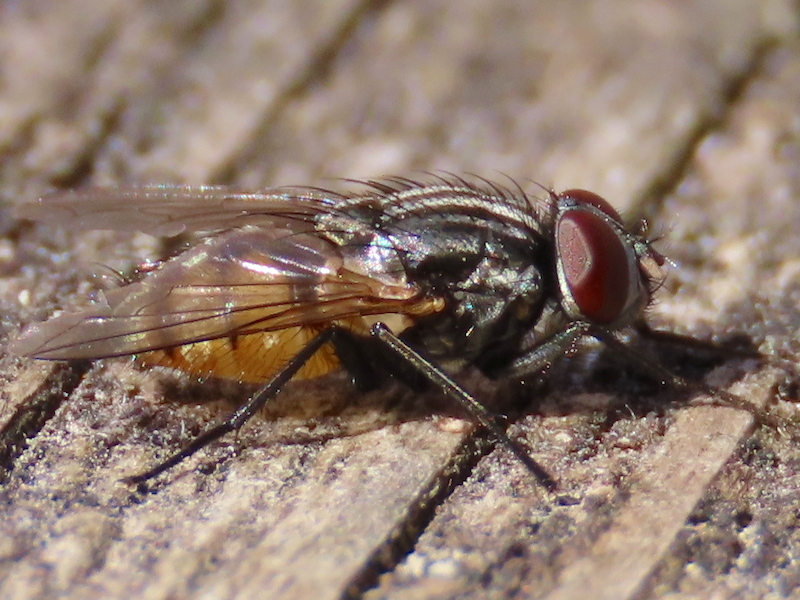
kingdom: Animalia
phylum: Arthropoda
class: Insecta
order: Diptera
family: Muscidae
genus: Musca
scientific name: Musca autumnalis
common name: Face fly
